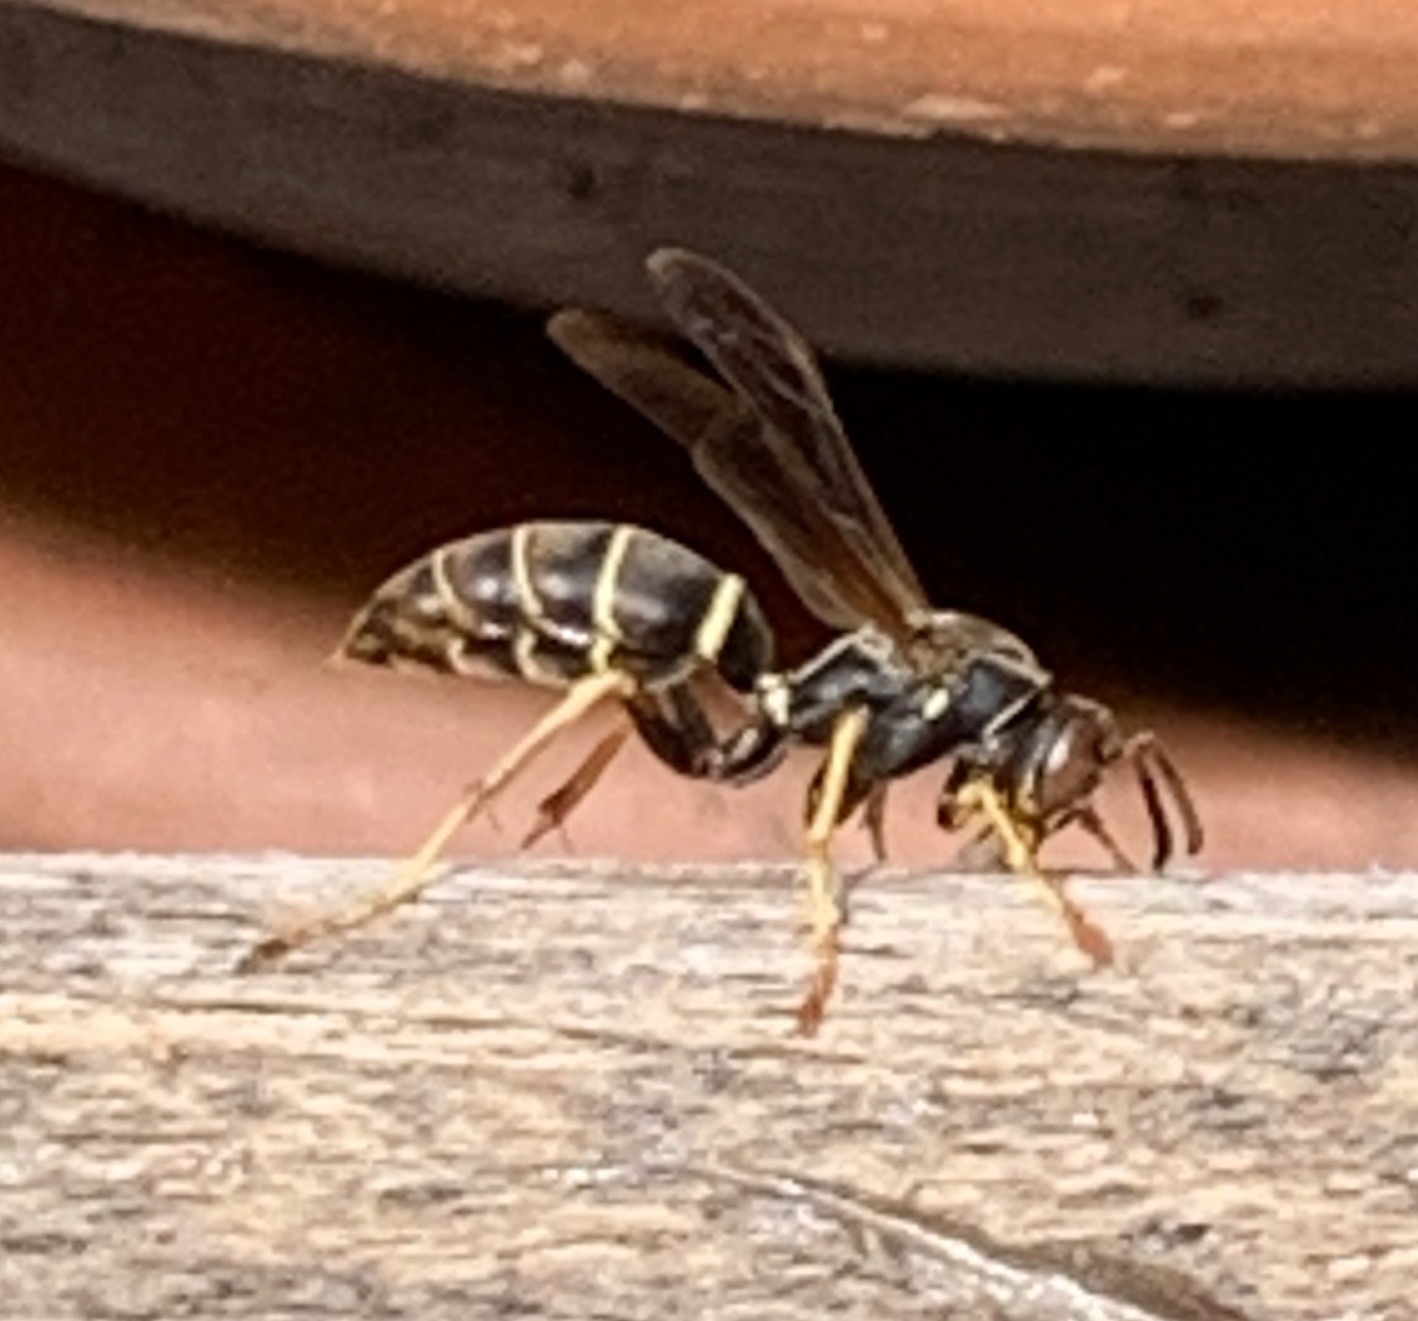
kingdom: Animalia
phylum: Arthropoda
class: Insecta
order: Hymenoptera
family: Eumenidae
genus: Polistes
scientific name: Polistes fuscatus
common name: Dark paper wasp
